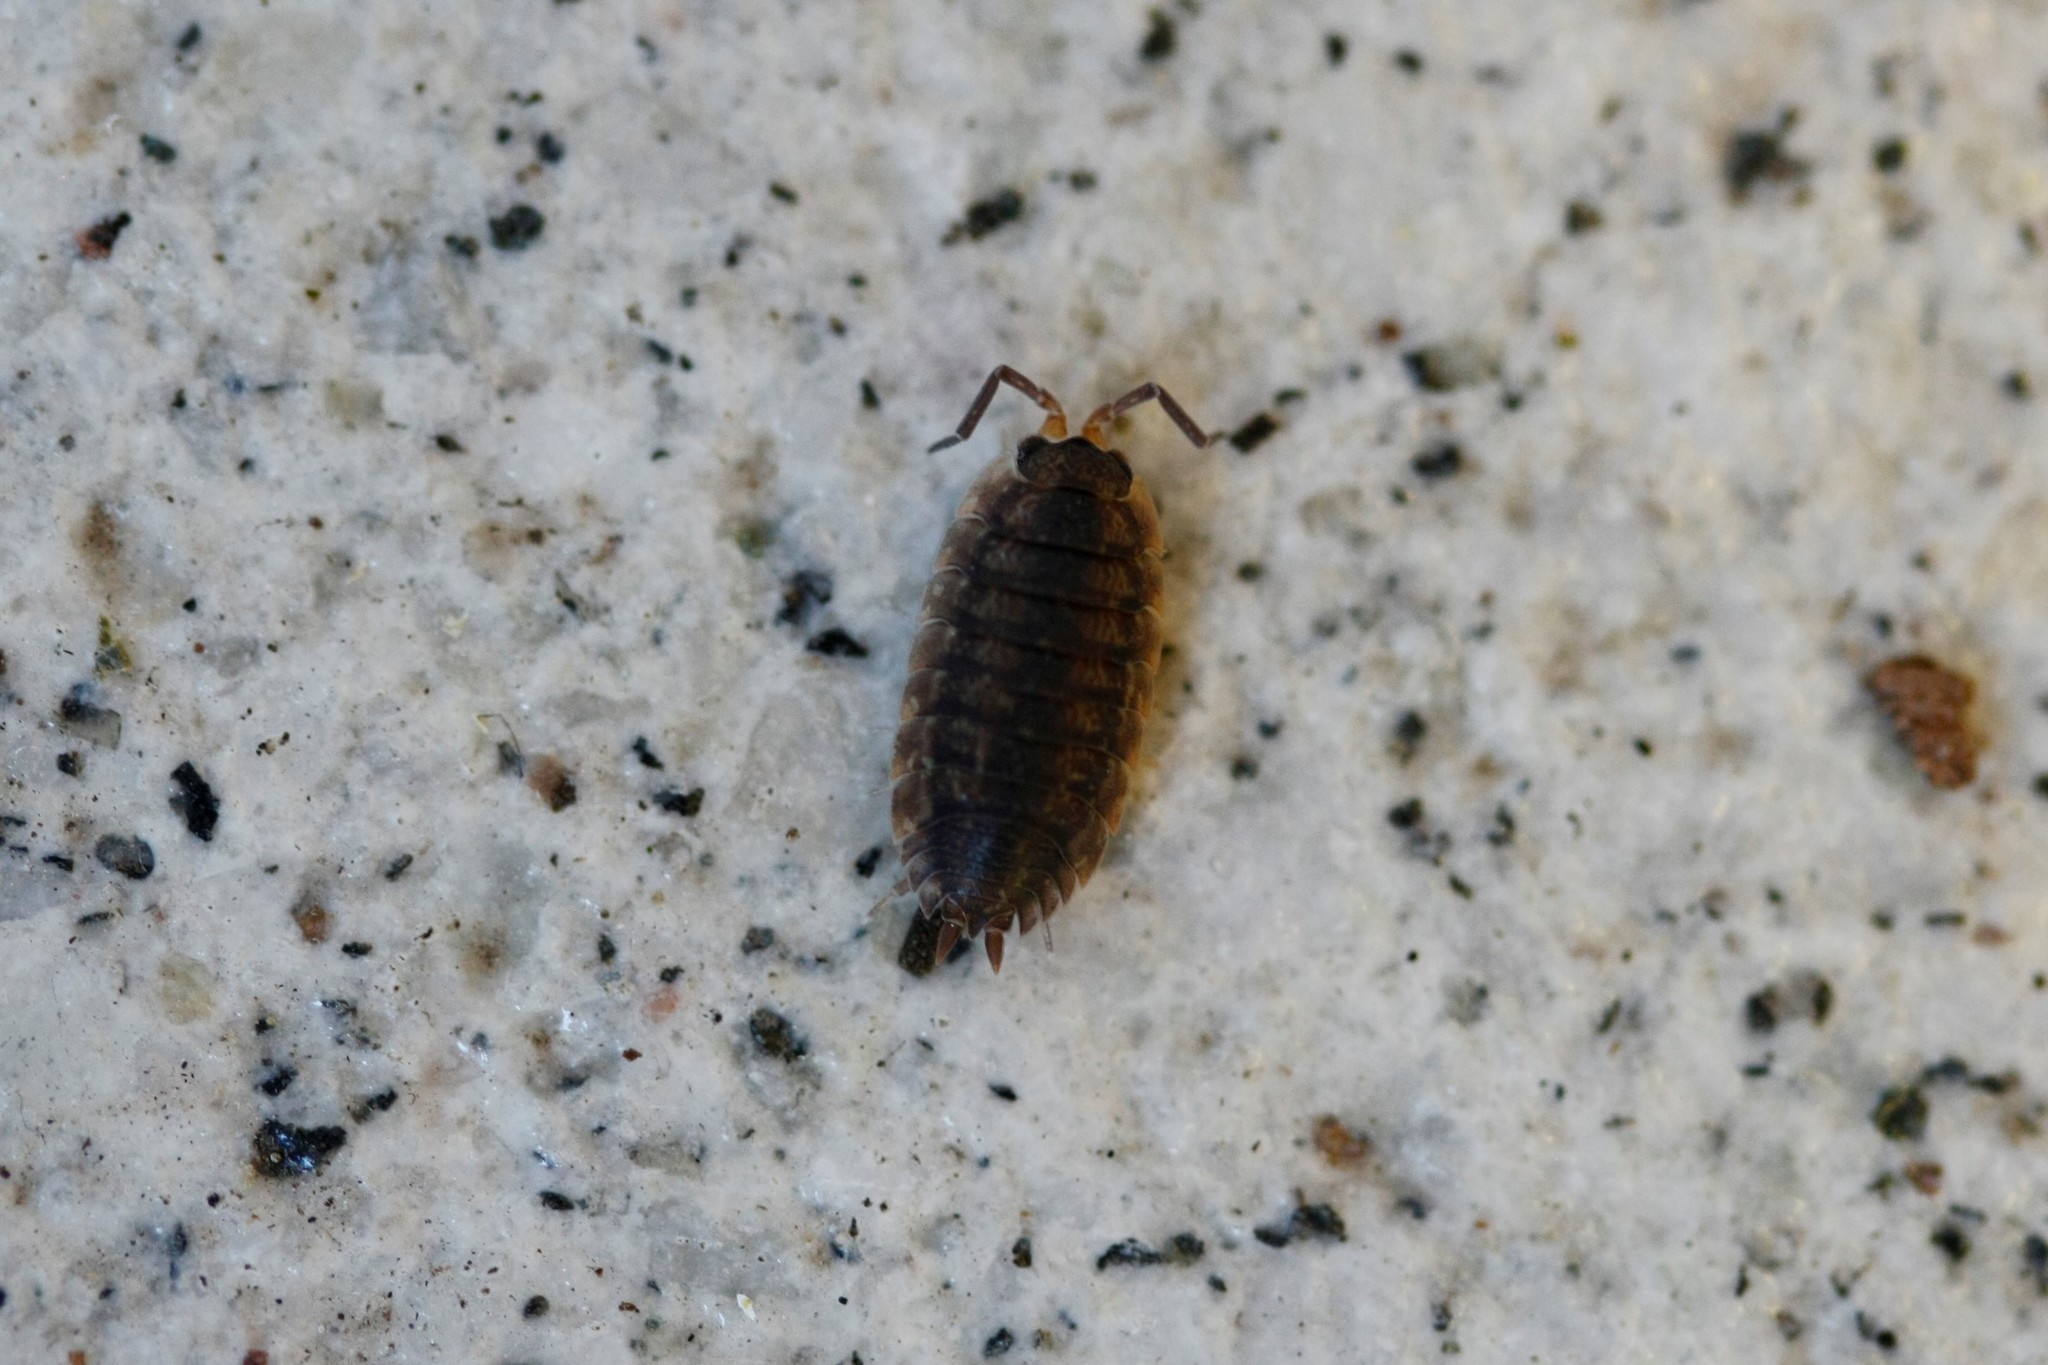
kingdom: Animalia
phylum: Arthropoda
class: Malacostraca
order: Isopoda
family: Porcellionidae
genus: Porcellio
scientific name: Porcellio scaber
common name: Common rough woodlouse
